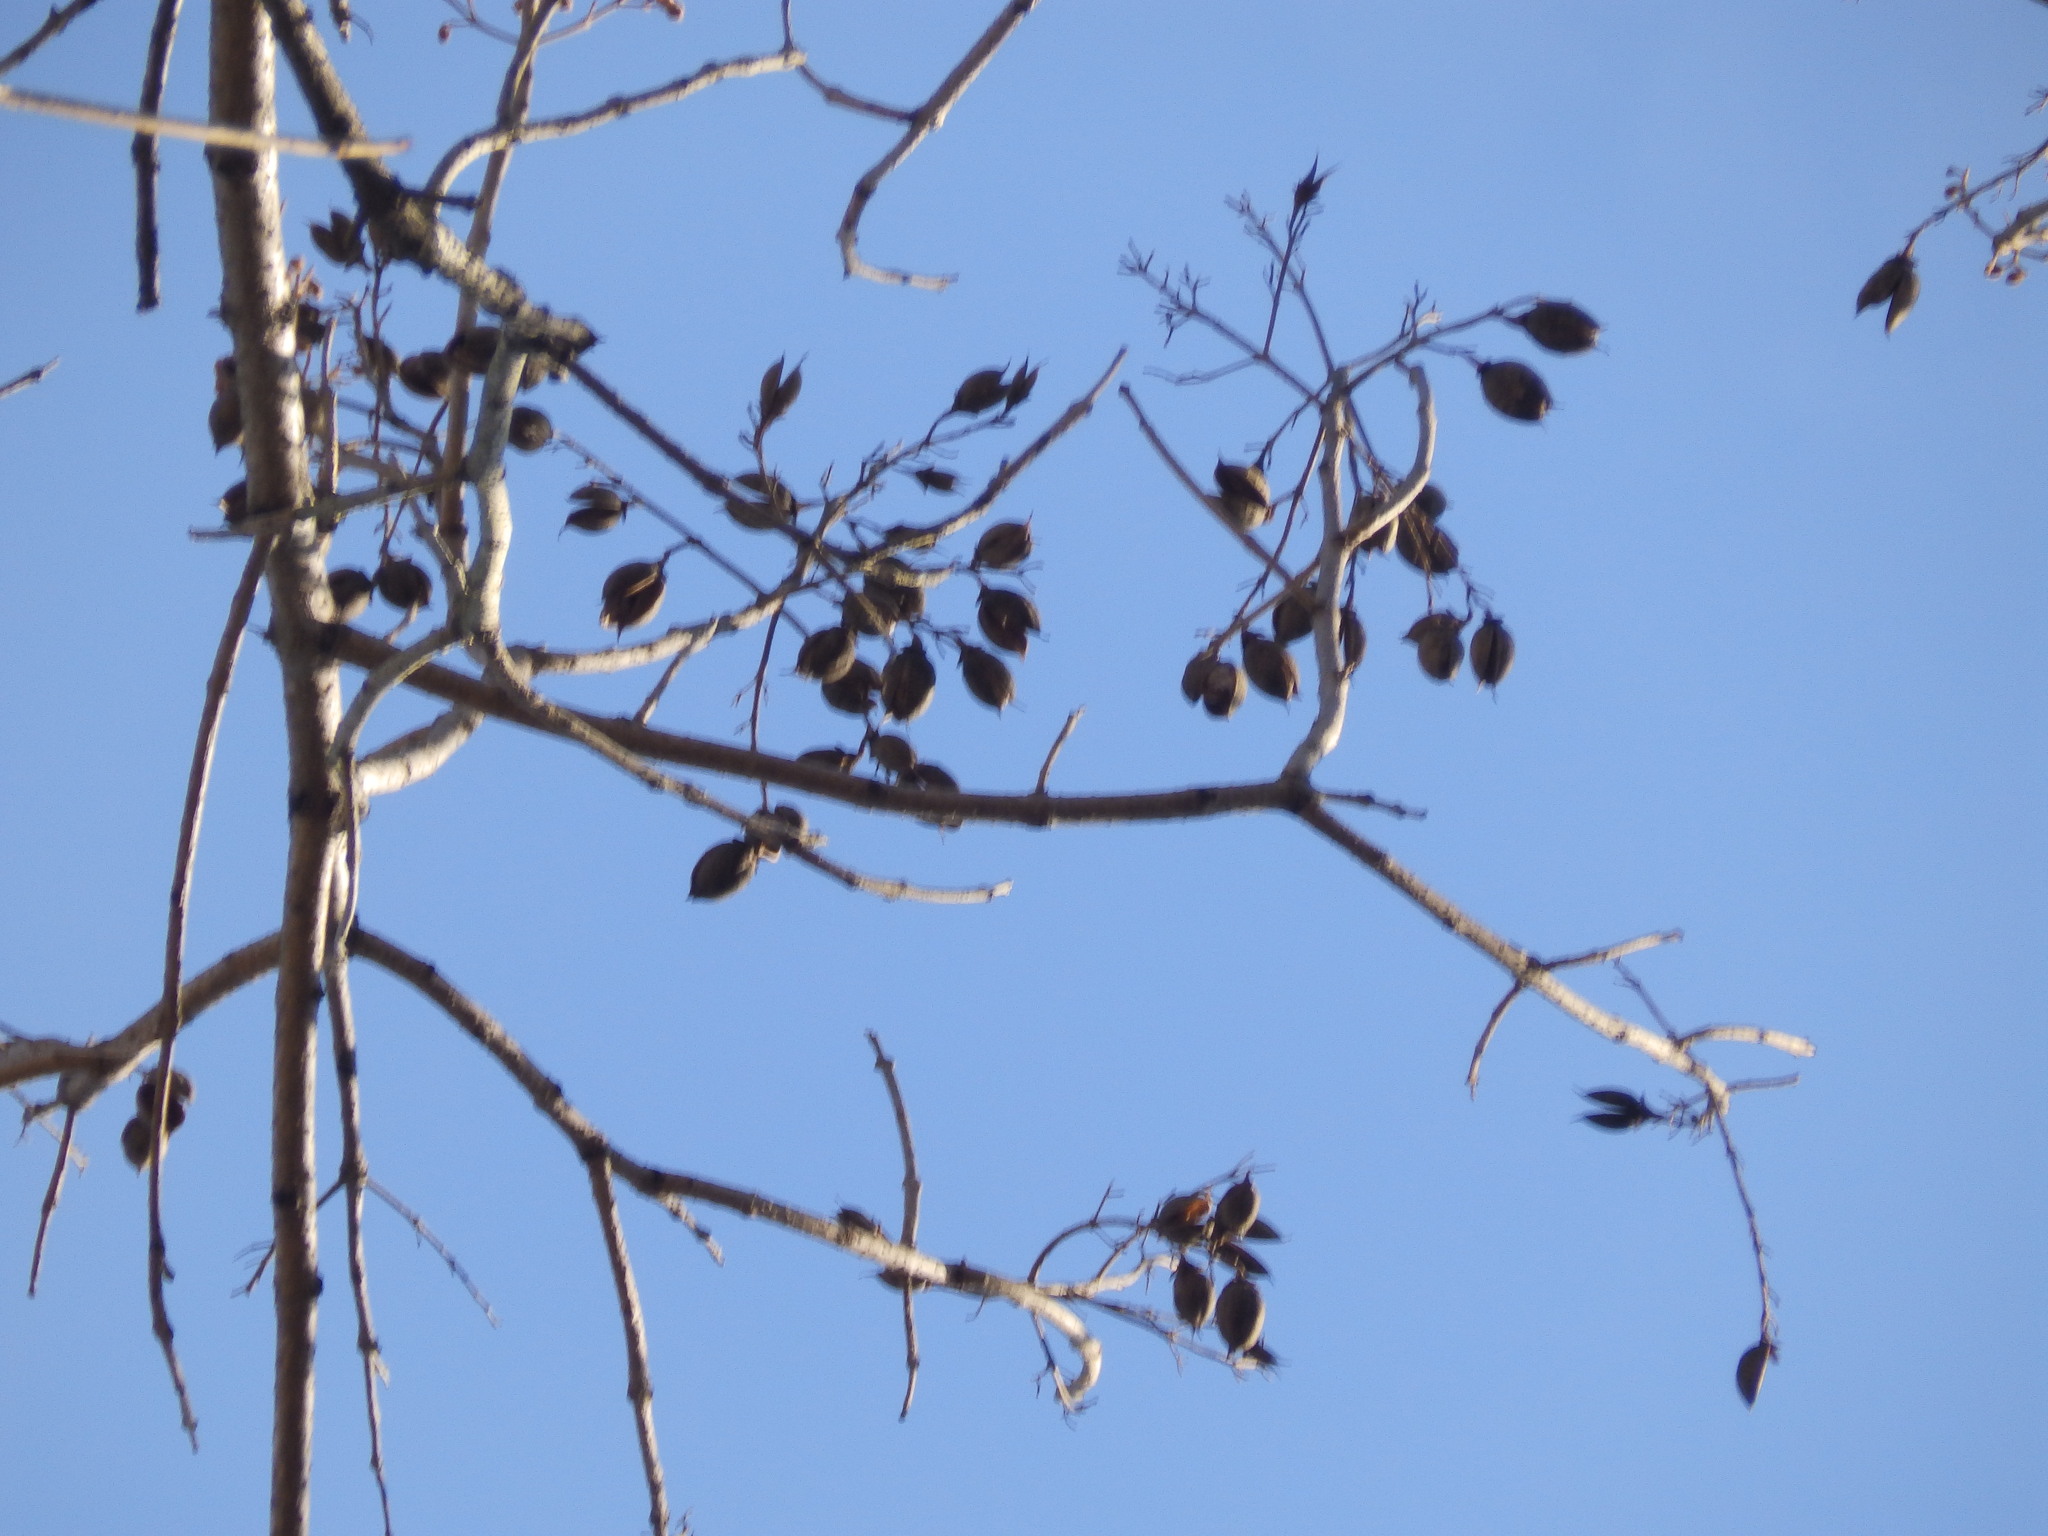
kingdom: Plantae
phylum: Tracheophyta
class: Magnoliopsida
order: Lamiales
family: Paulowniaceae
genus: Paulownia
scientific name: Paulownia tomentosa
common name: Foxglove-tree
